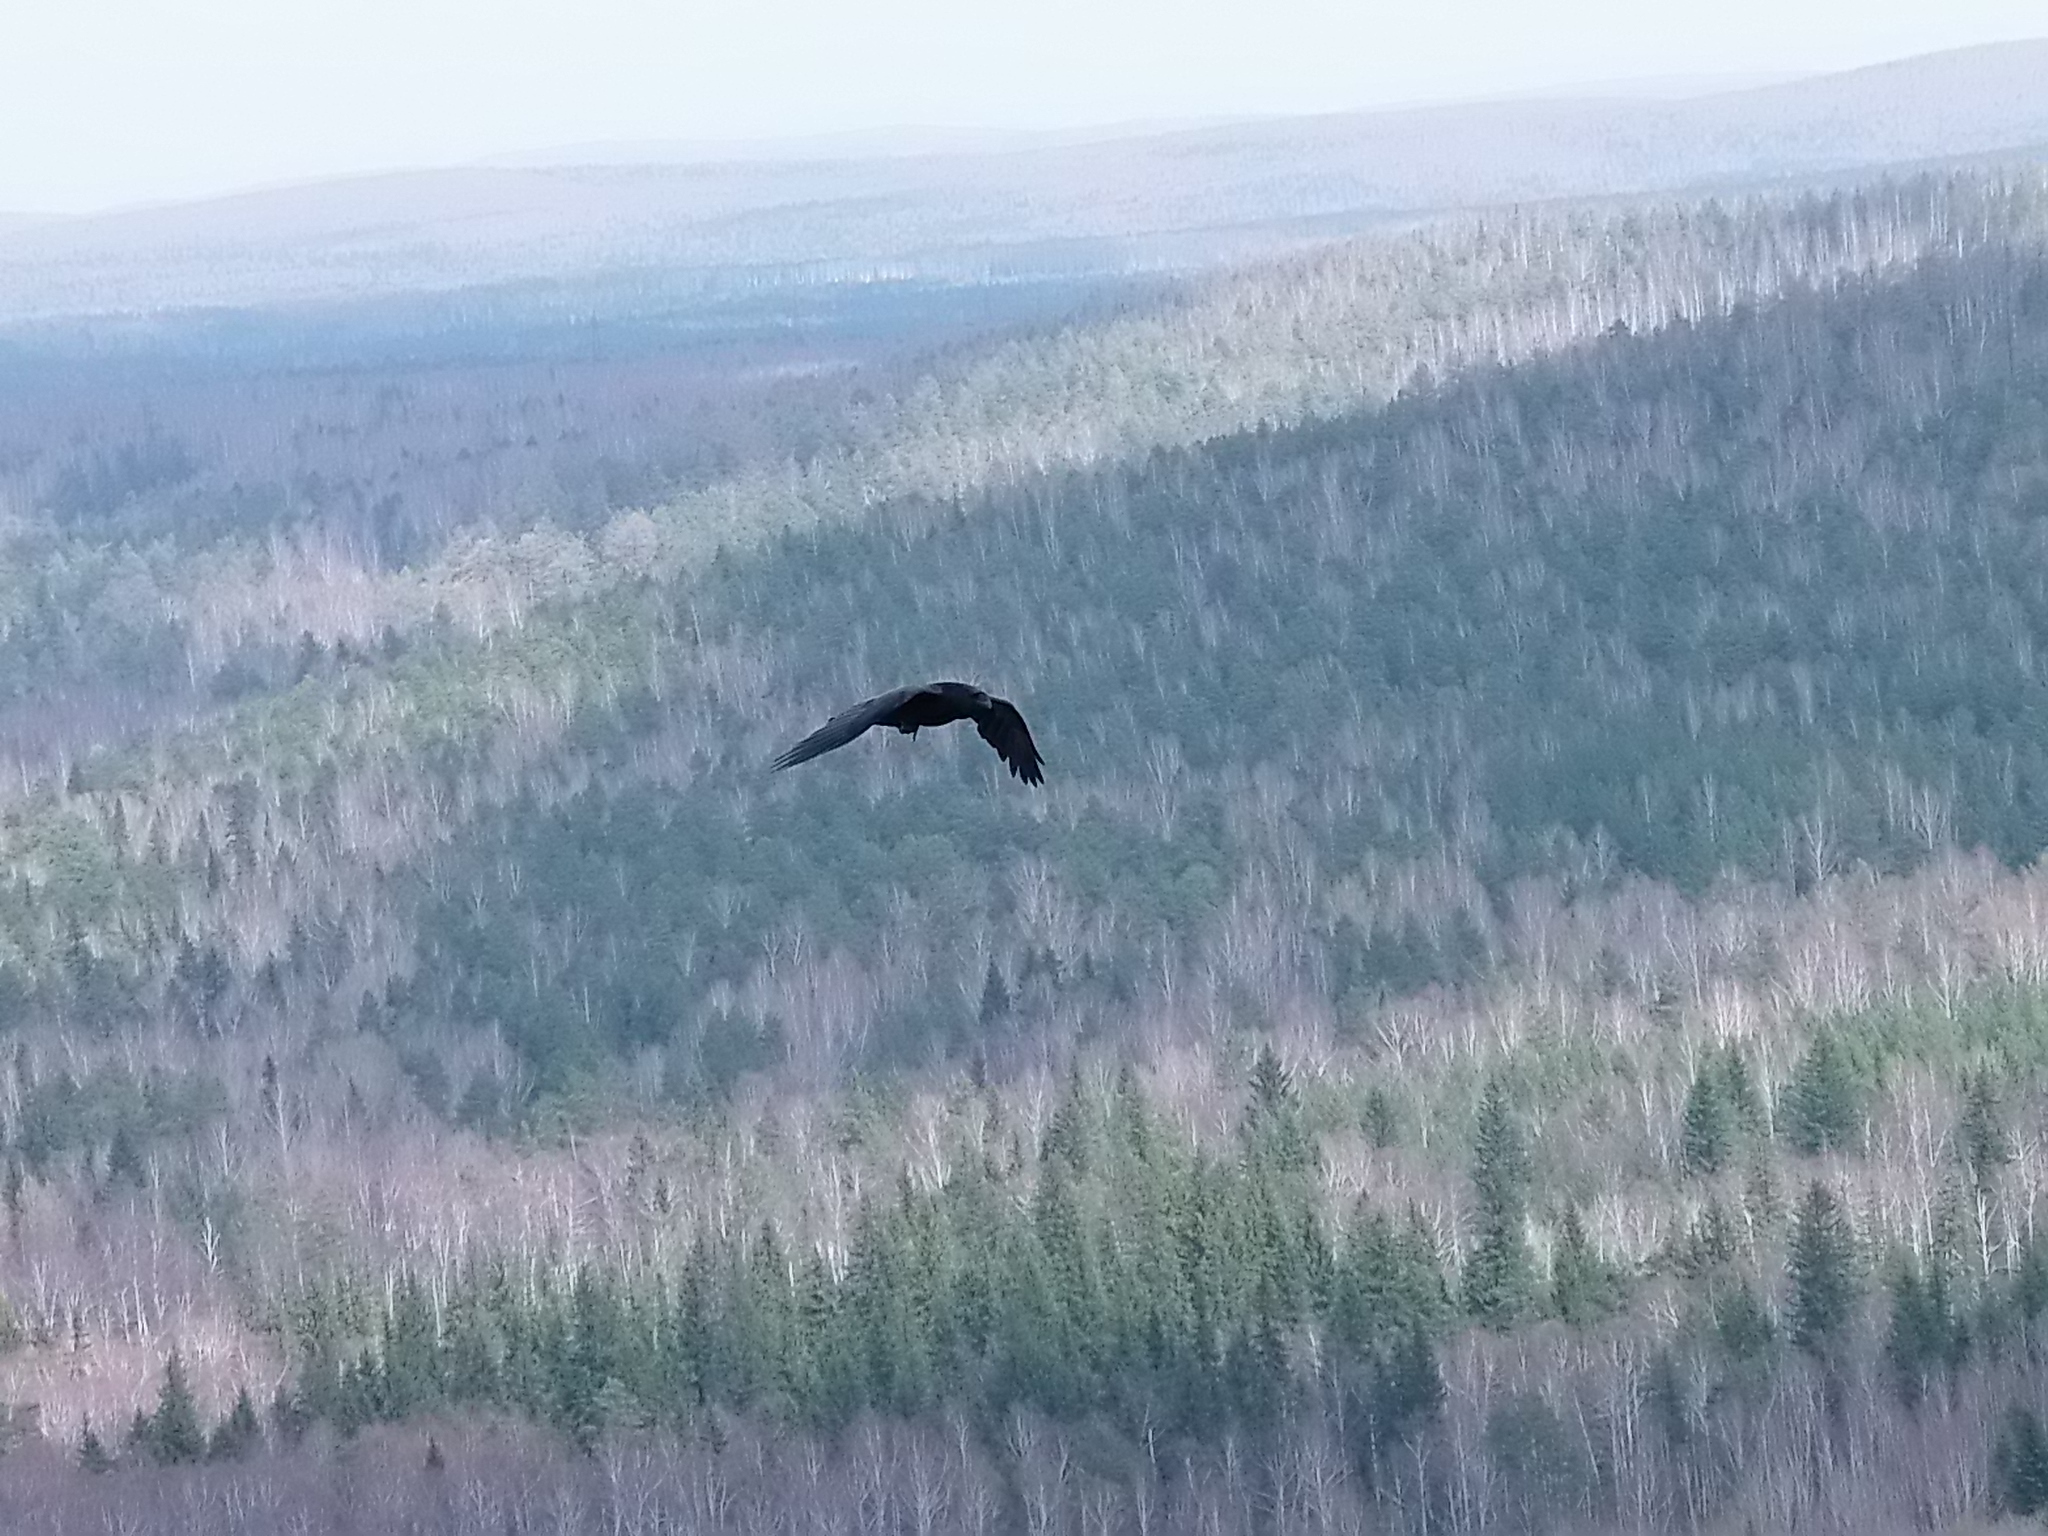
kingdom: Animalia
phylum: Chordata
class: Aves
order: Passeriformes
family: Corvidae
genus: Corvus
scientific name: Corvus corax
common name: Common raven
